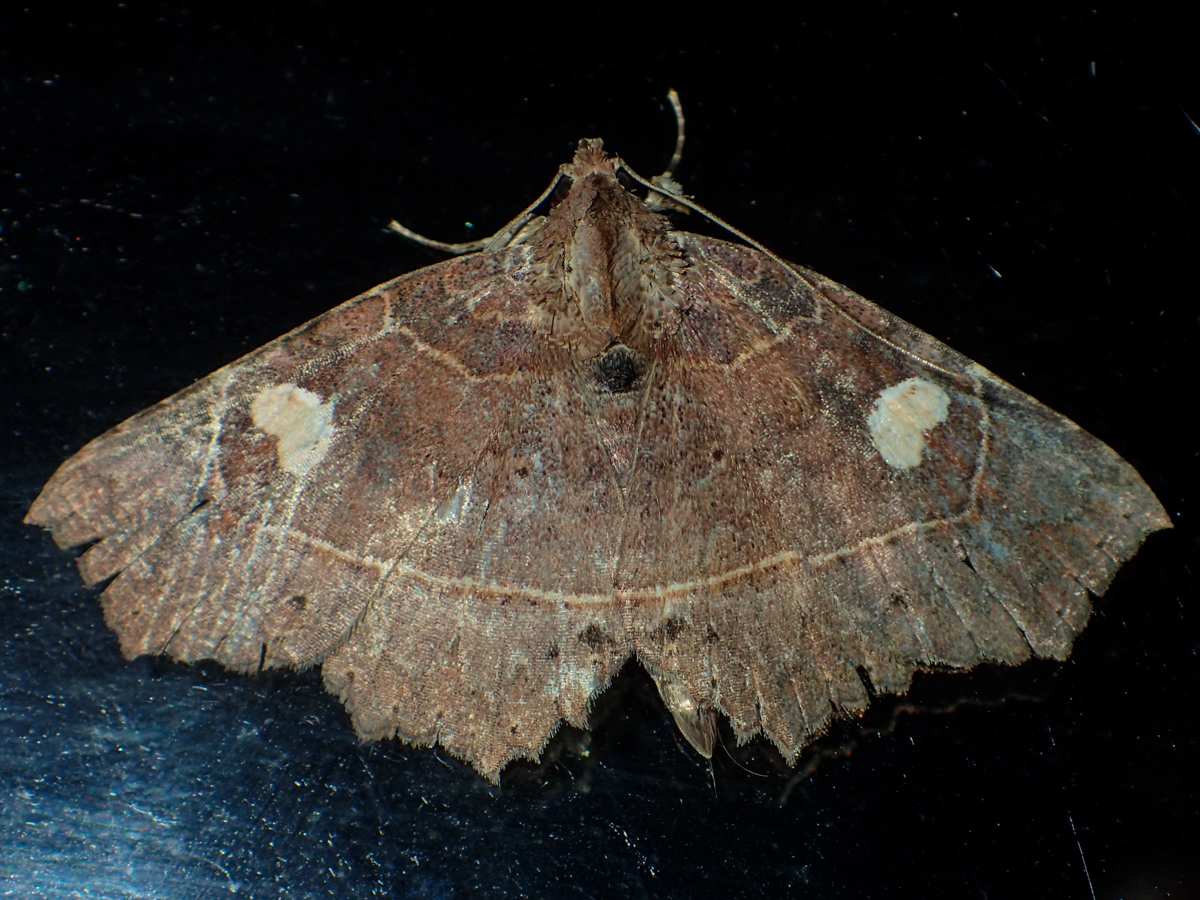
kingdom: Animalia
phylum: Arthropoda
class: Insecta
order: Lepidoptera
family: Erebidae
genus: Tamba
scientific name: Tamba occidinawa
